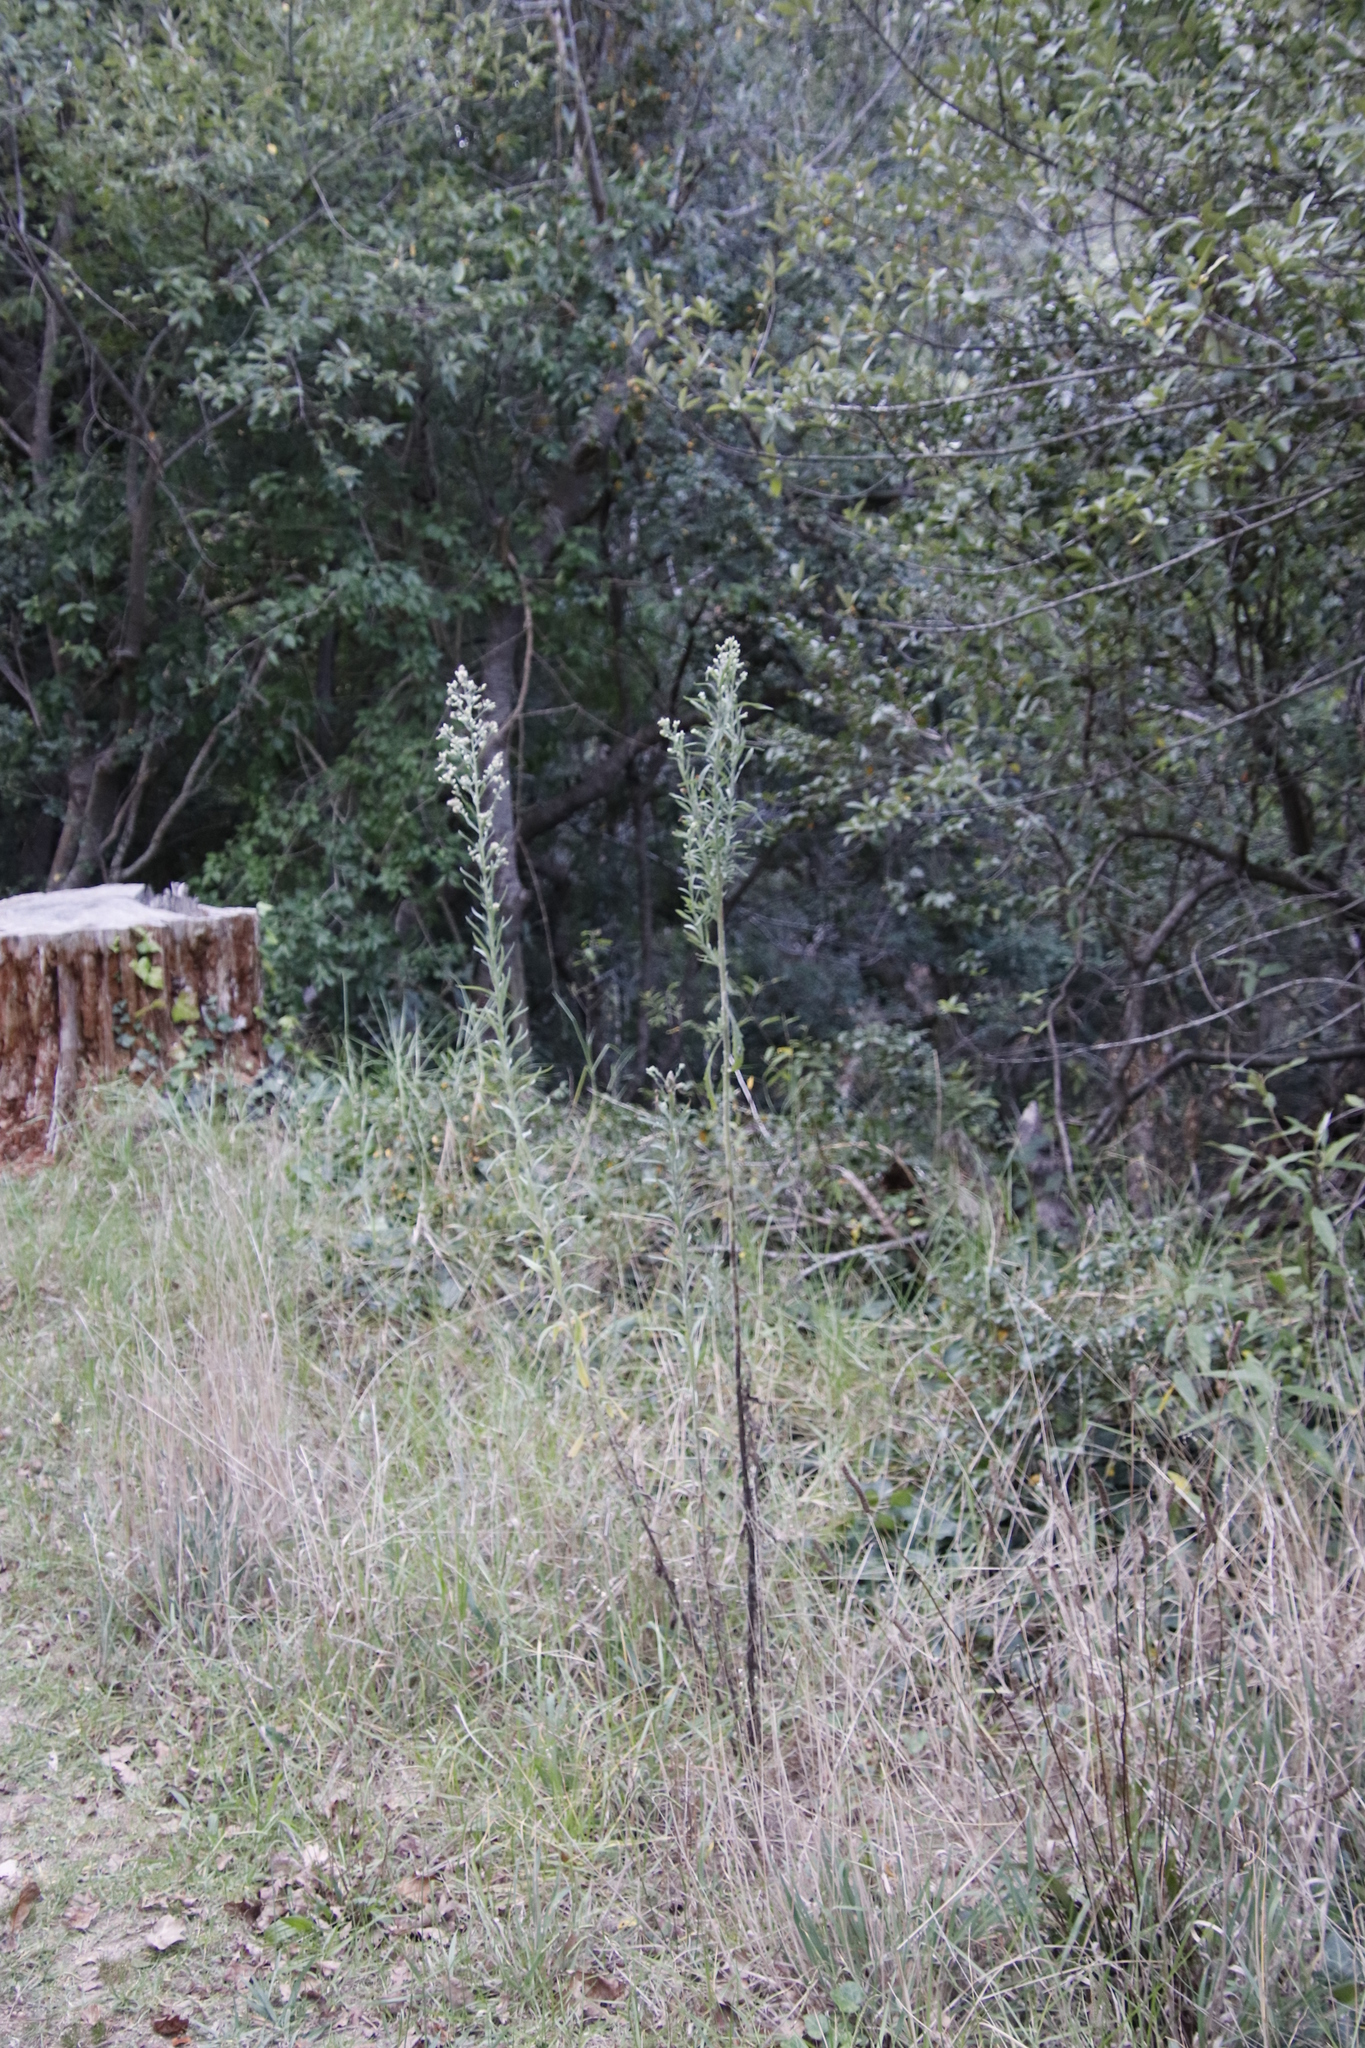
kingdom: Plantae
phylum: Tracheophyta
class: Magnoliopsida
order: Asterales
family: Asteraceae
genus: Erigeron
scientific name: Erigeron sumatrensis
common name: Daisy
